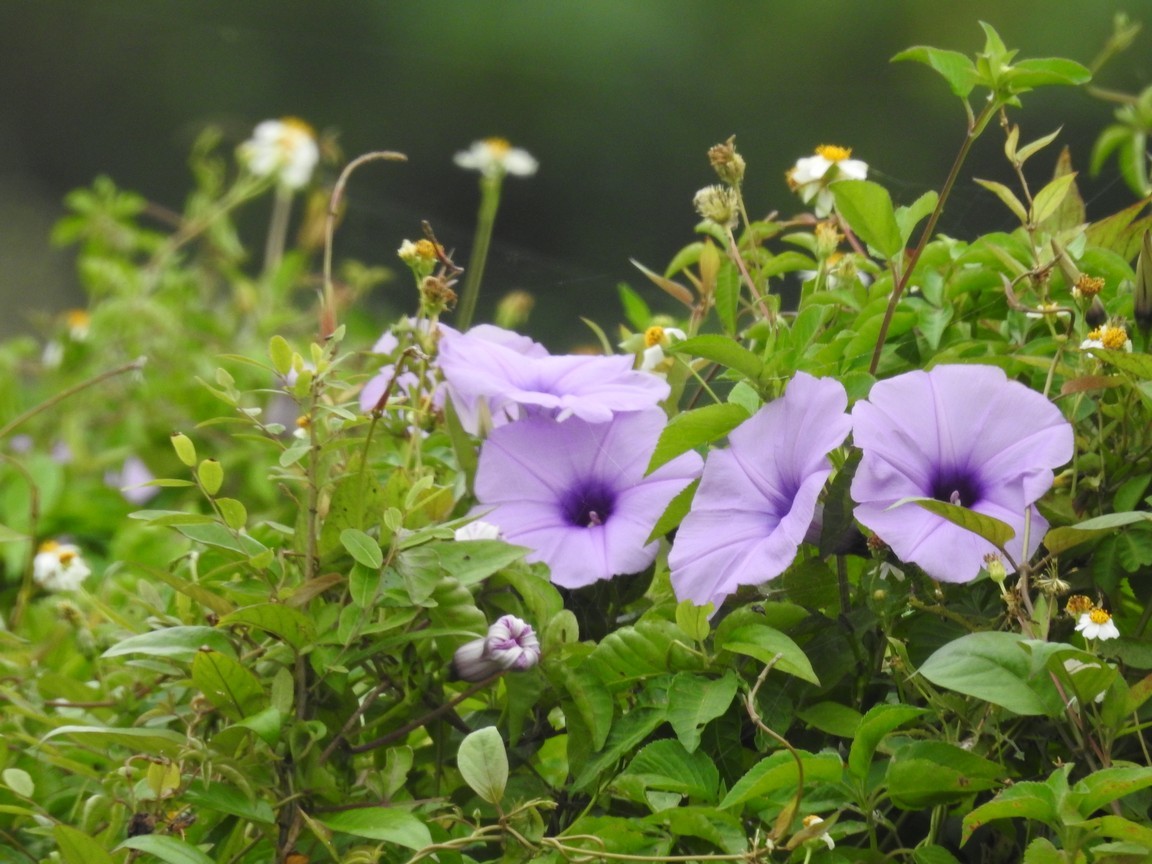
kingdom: Plantae
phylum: Tracheophyta
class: Magnoliopsida
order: Solanales
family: Convolvulaceae
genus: Ipomoea
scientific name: Ipomoea cairica
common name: Mile a minute vine
